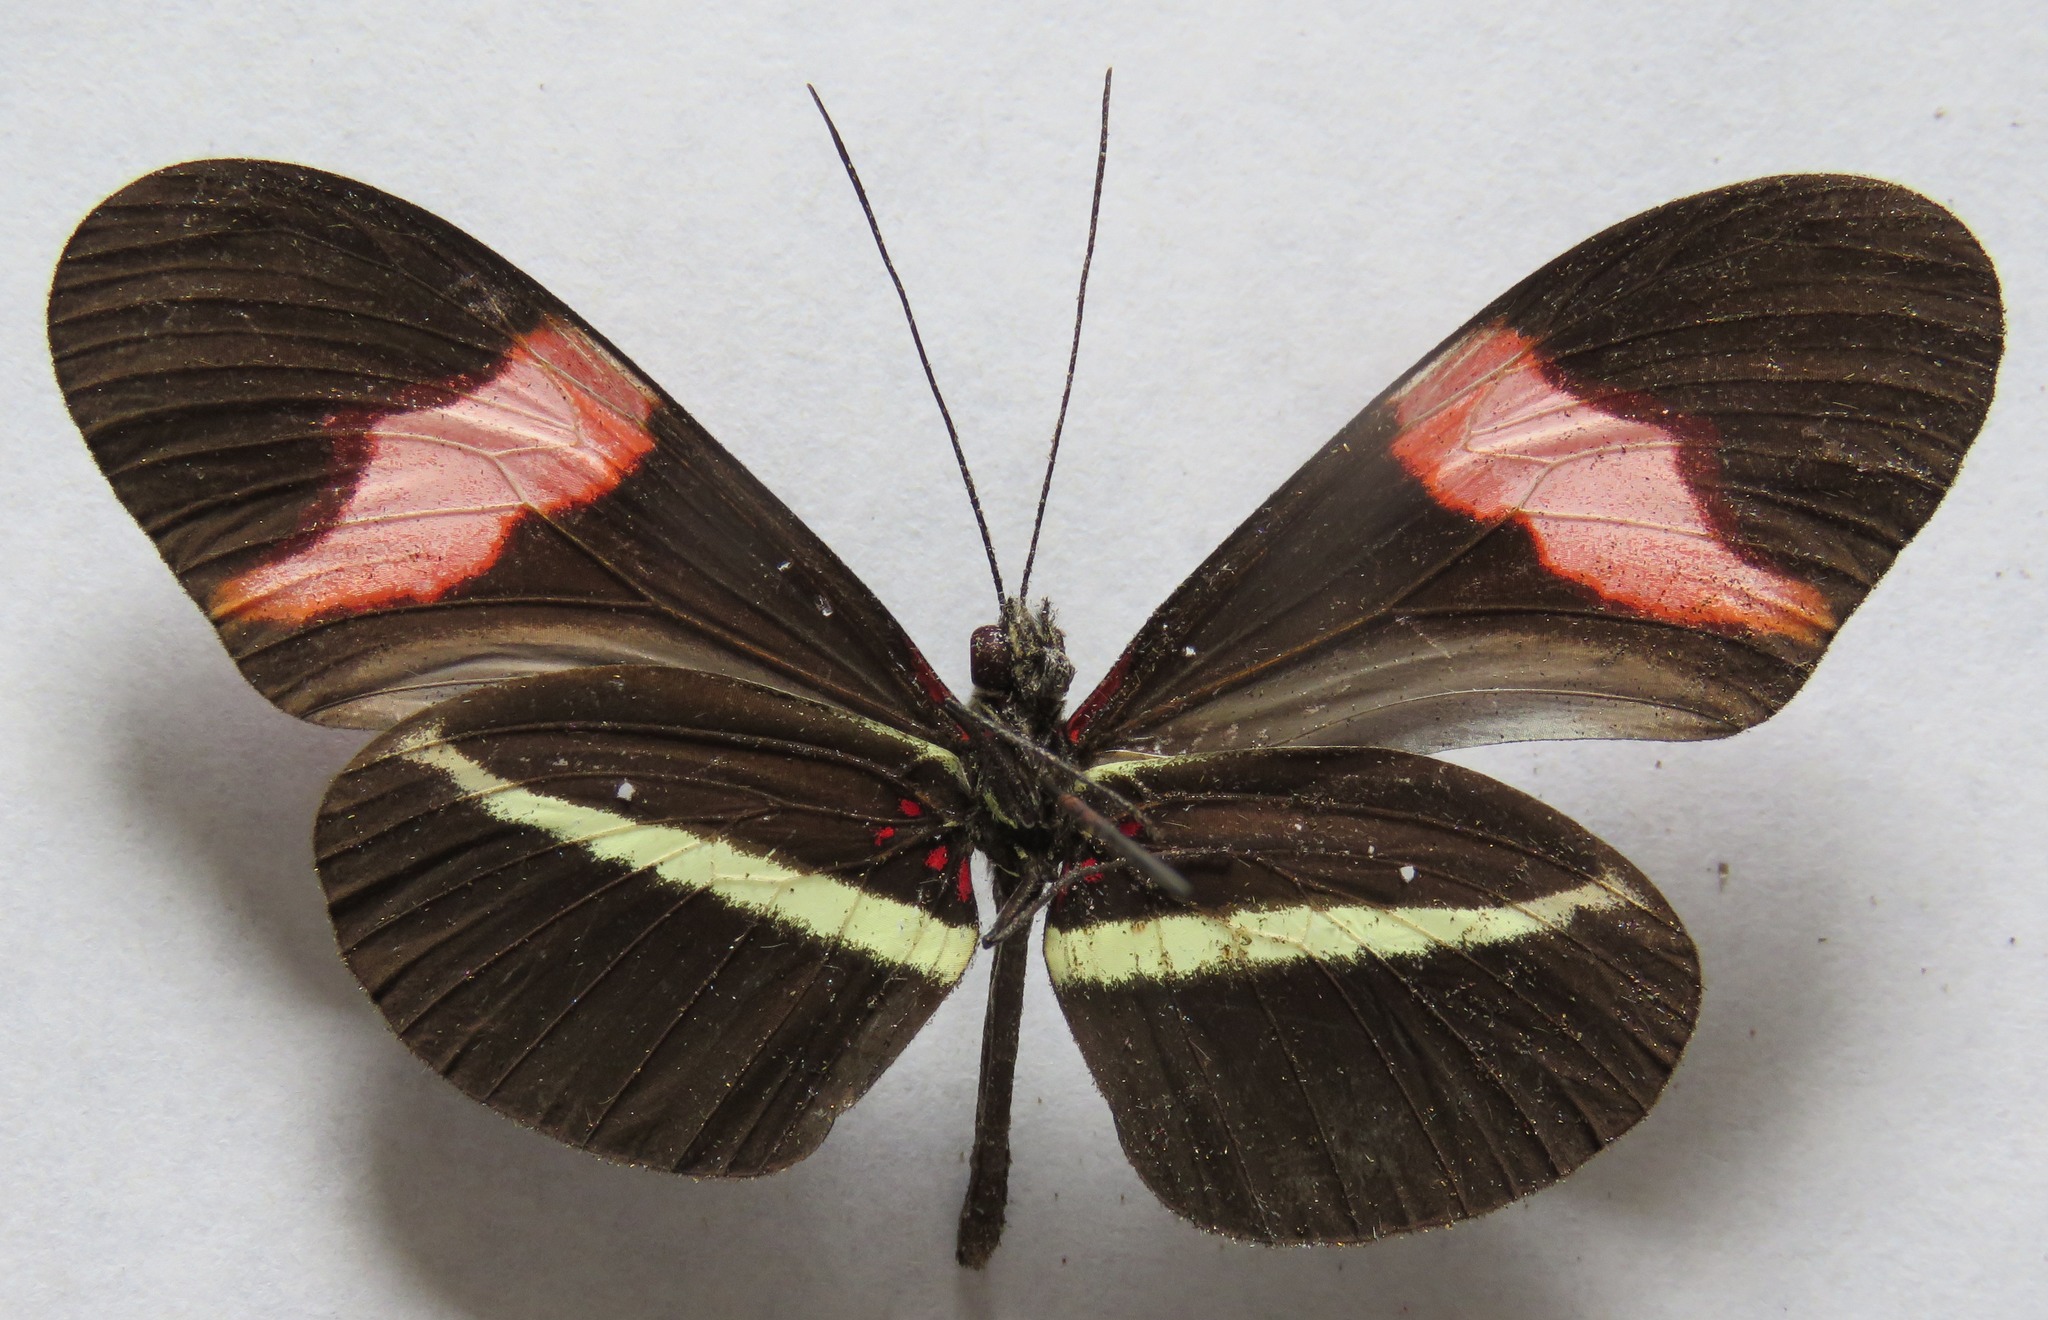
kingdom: Animalia
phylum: Arthropoda
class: Insecta
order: Lepidoptera
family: Nymphalidae
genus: Tirumala
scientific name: Tirumala petiverana
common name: Blue monarch
